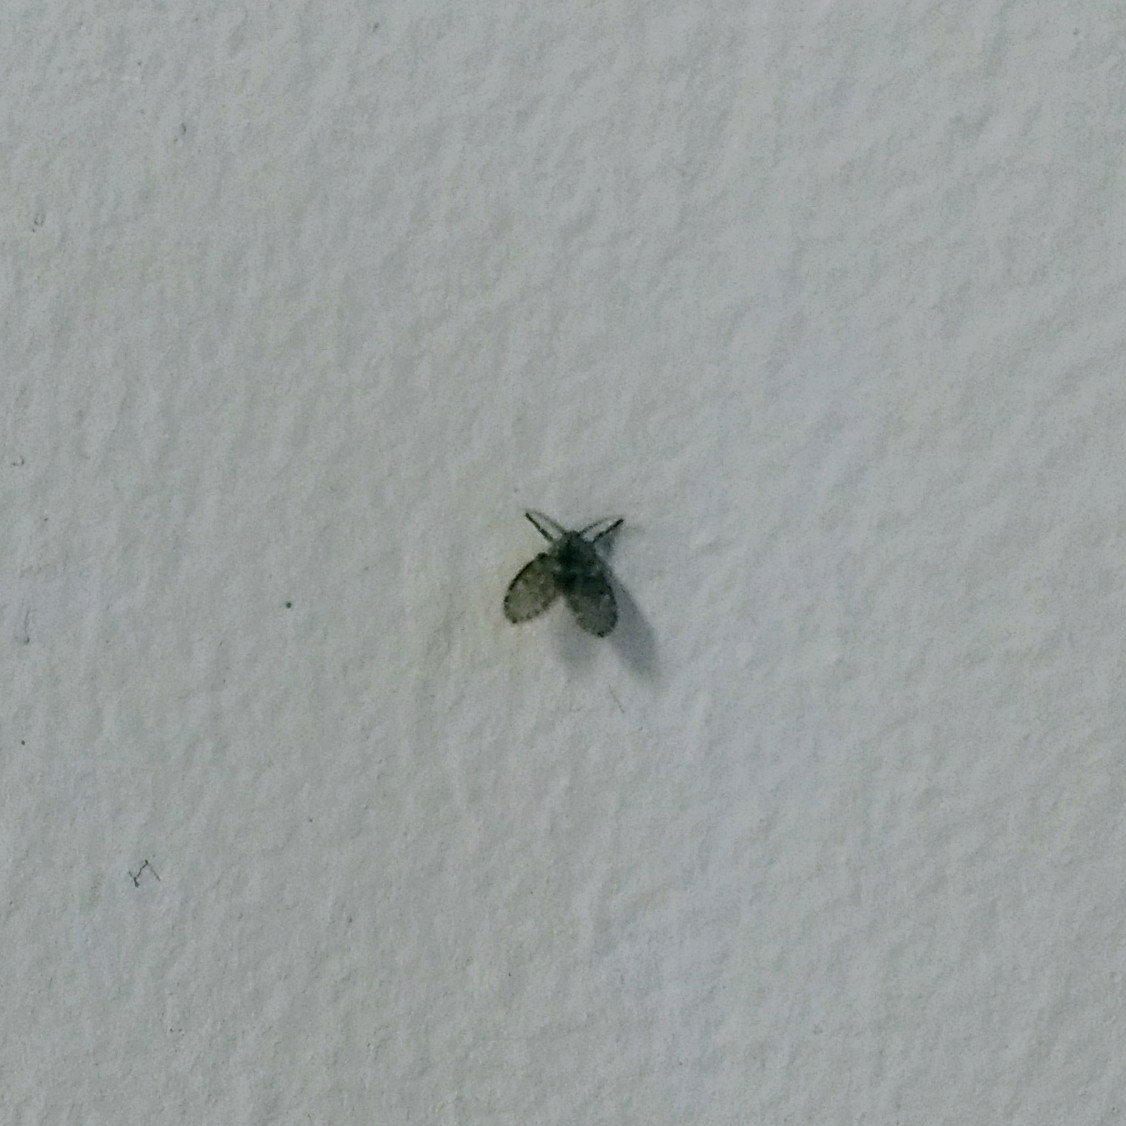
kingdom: Animalia
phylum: Arthropoda
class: Insecta
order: Diptera
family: Psychodidae
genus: Clogmia
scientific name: Clogmia albipunctatus
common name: White-spotted moth fly
